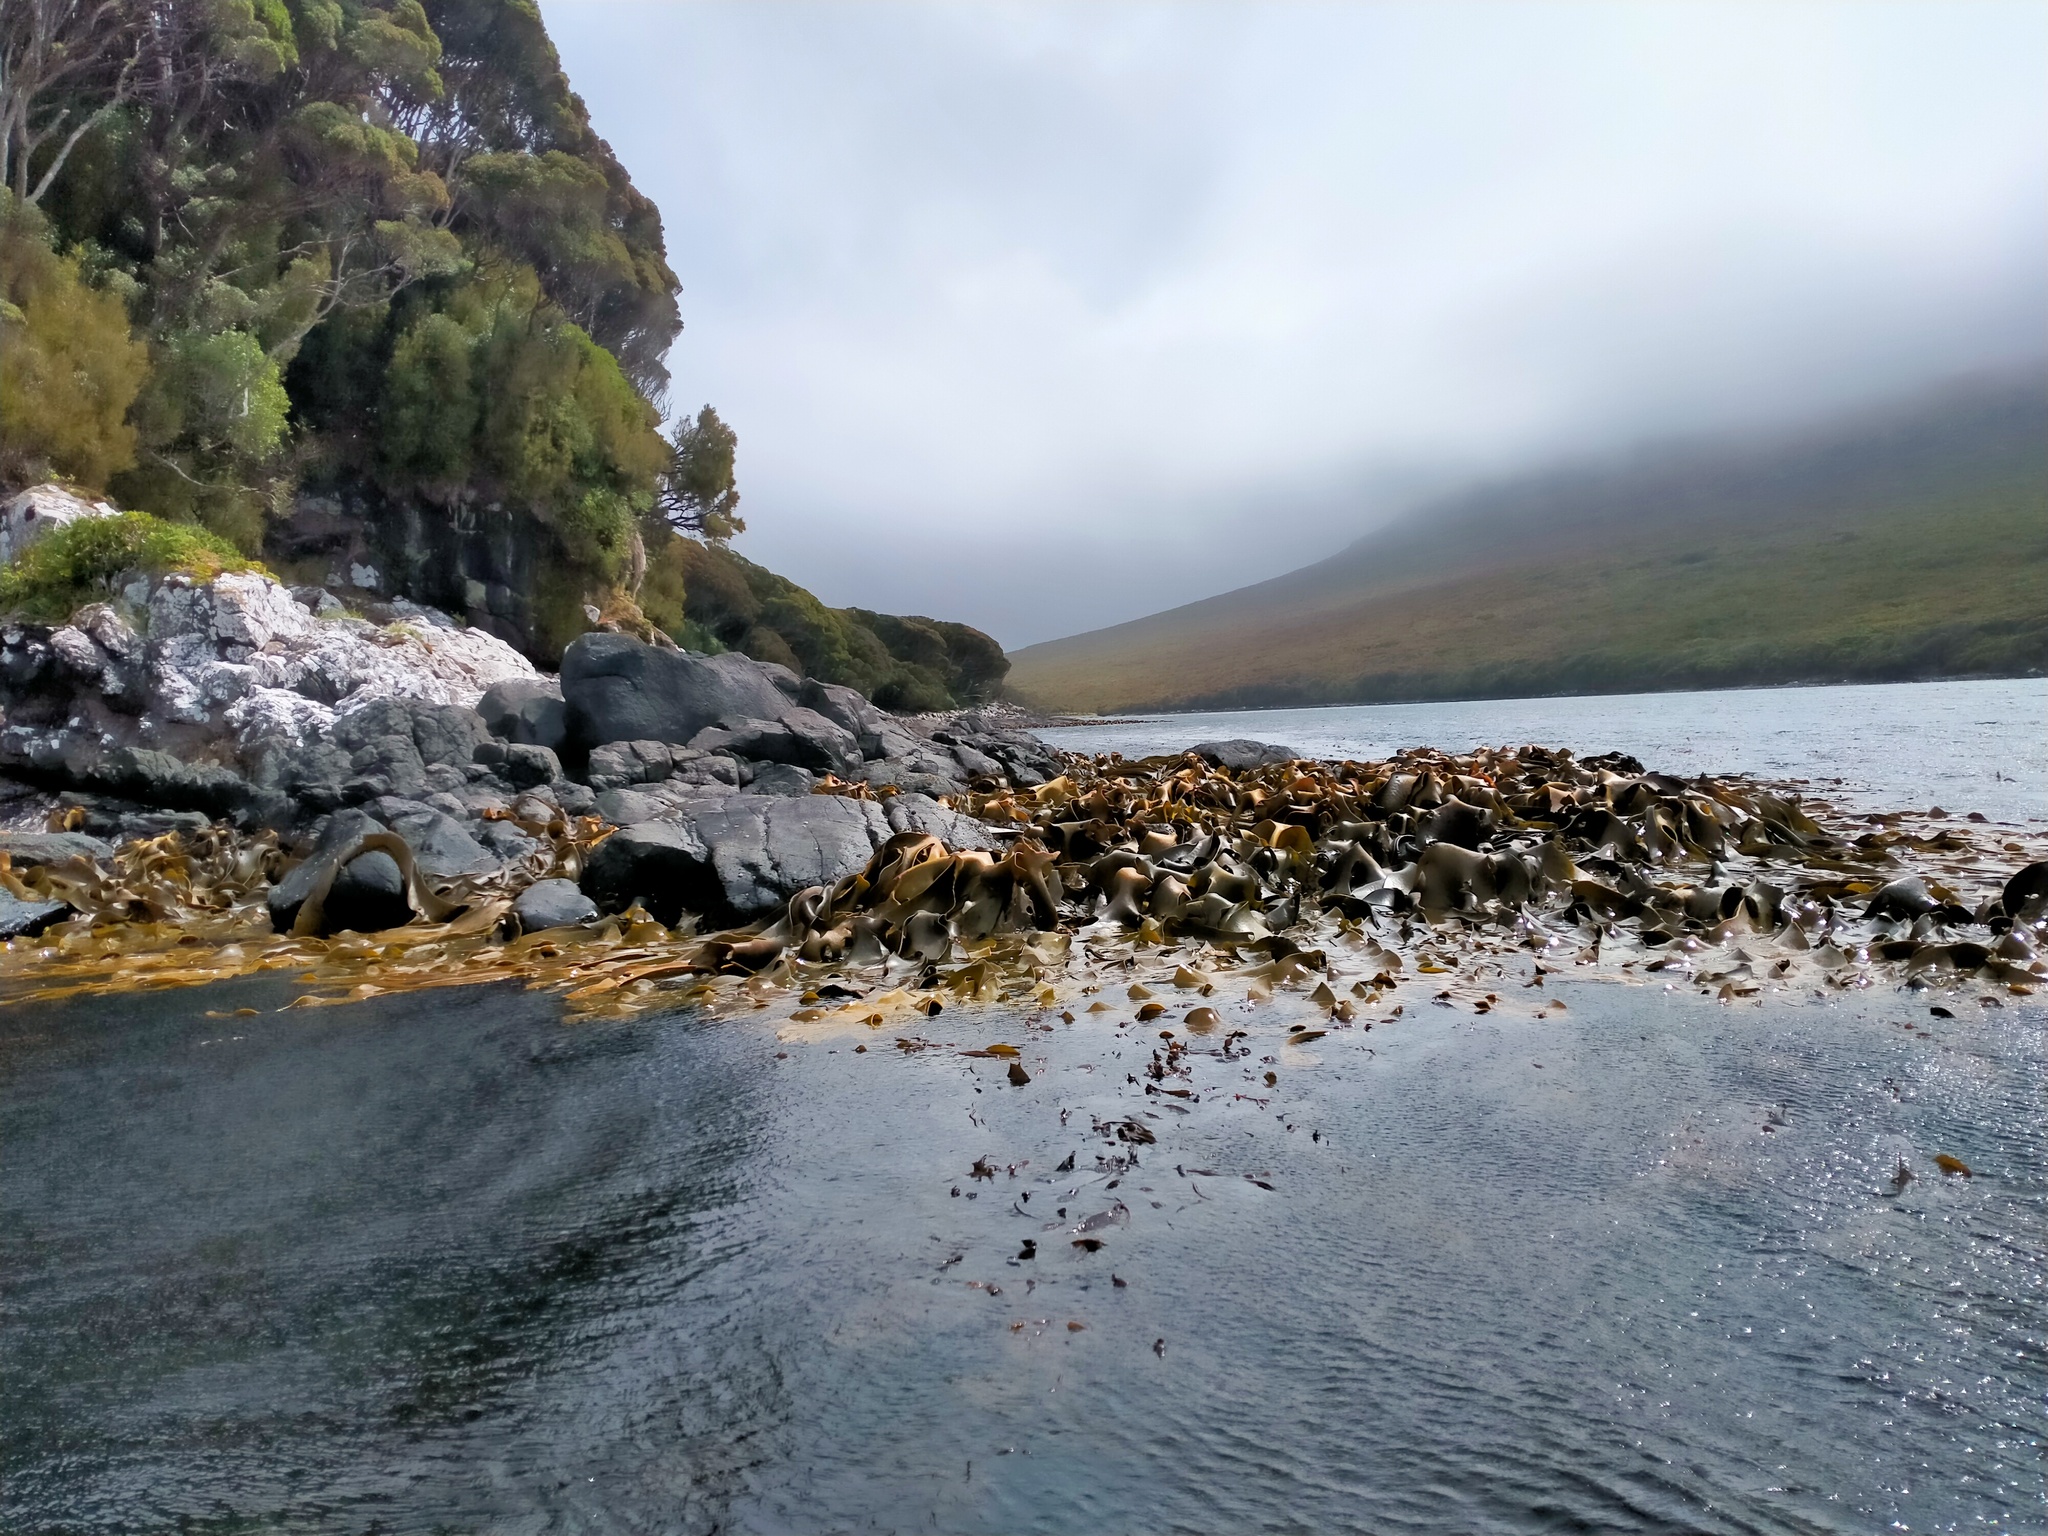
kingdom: Chromista
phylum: Ochrophyta
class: Phaeophyceae
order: Fucales
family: Durvillaeaceae
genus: Durvillaea
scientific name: Durvillaea poha
